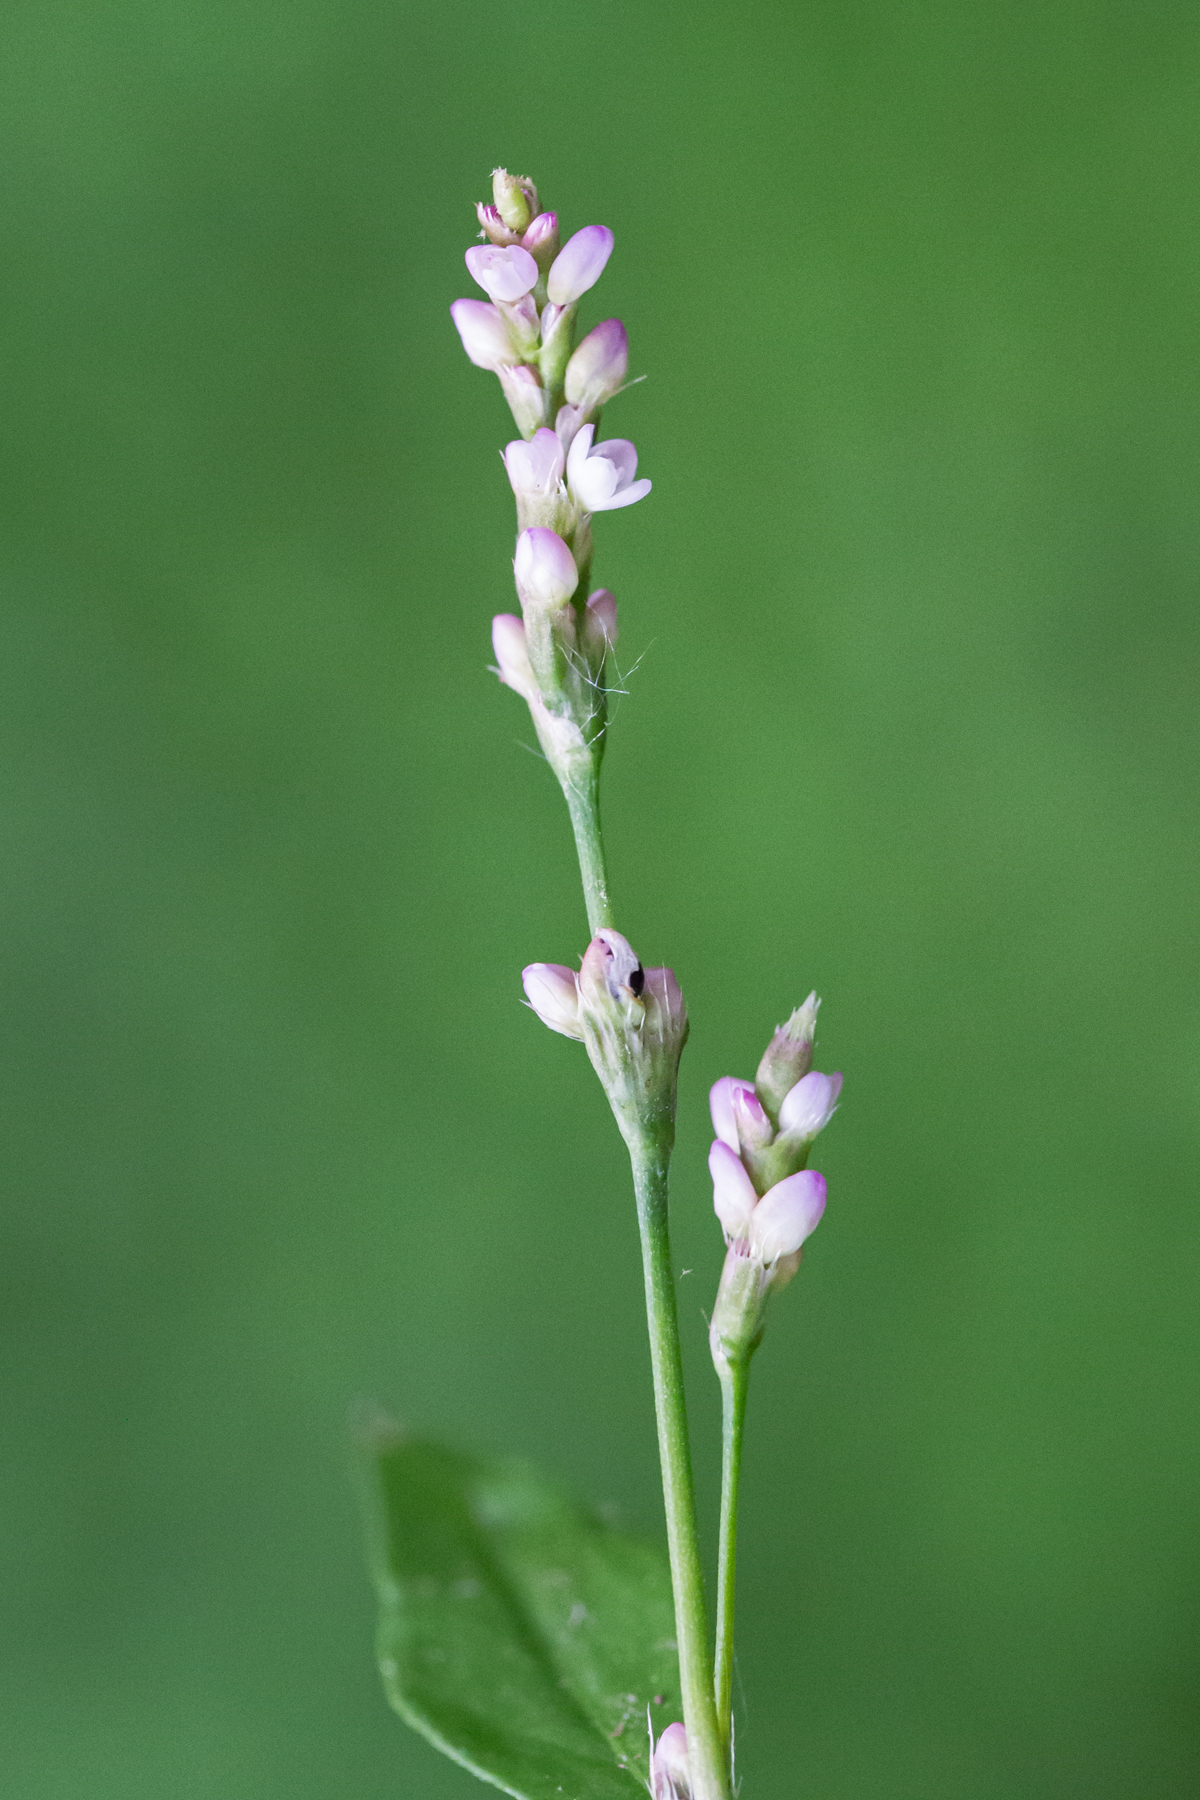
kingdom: Plantae
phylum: Tracheophyta
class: Magnoliopsida
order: Caryophyllales
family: Polygonaceae
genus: Persicaria
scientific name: Persicaria longiseta
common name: Bristly lady's-thumb
